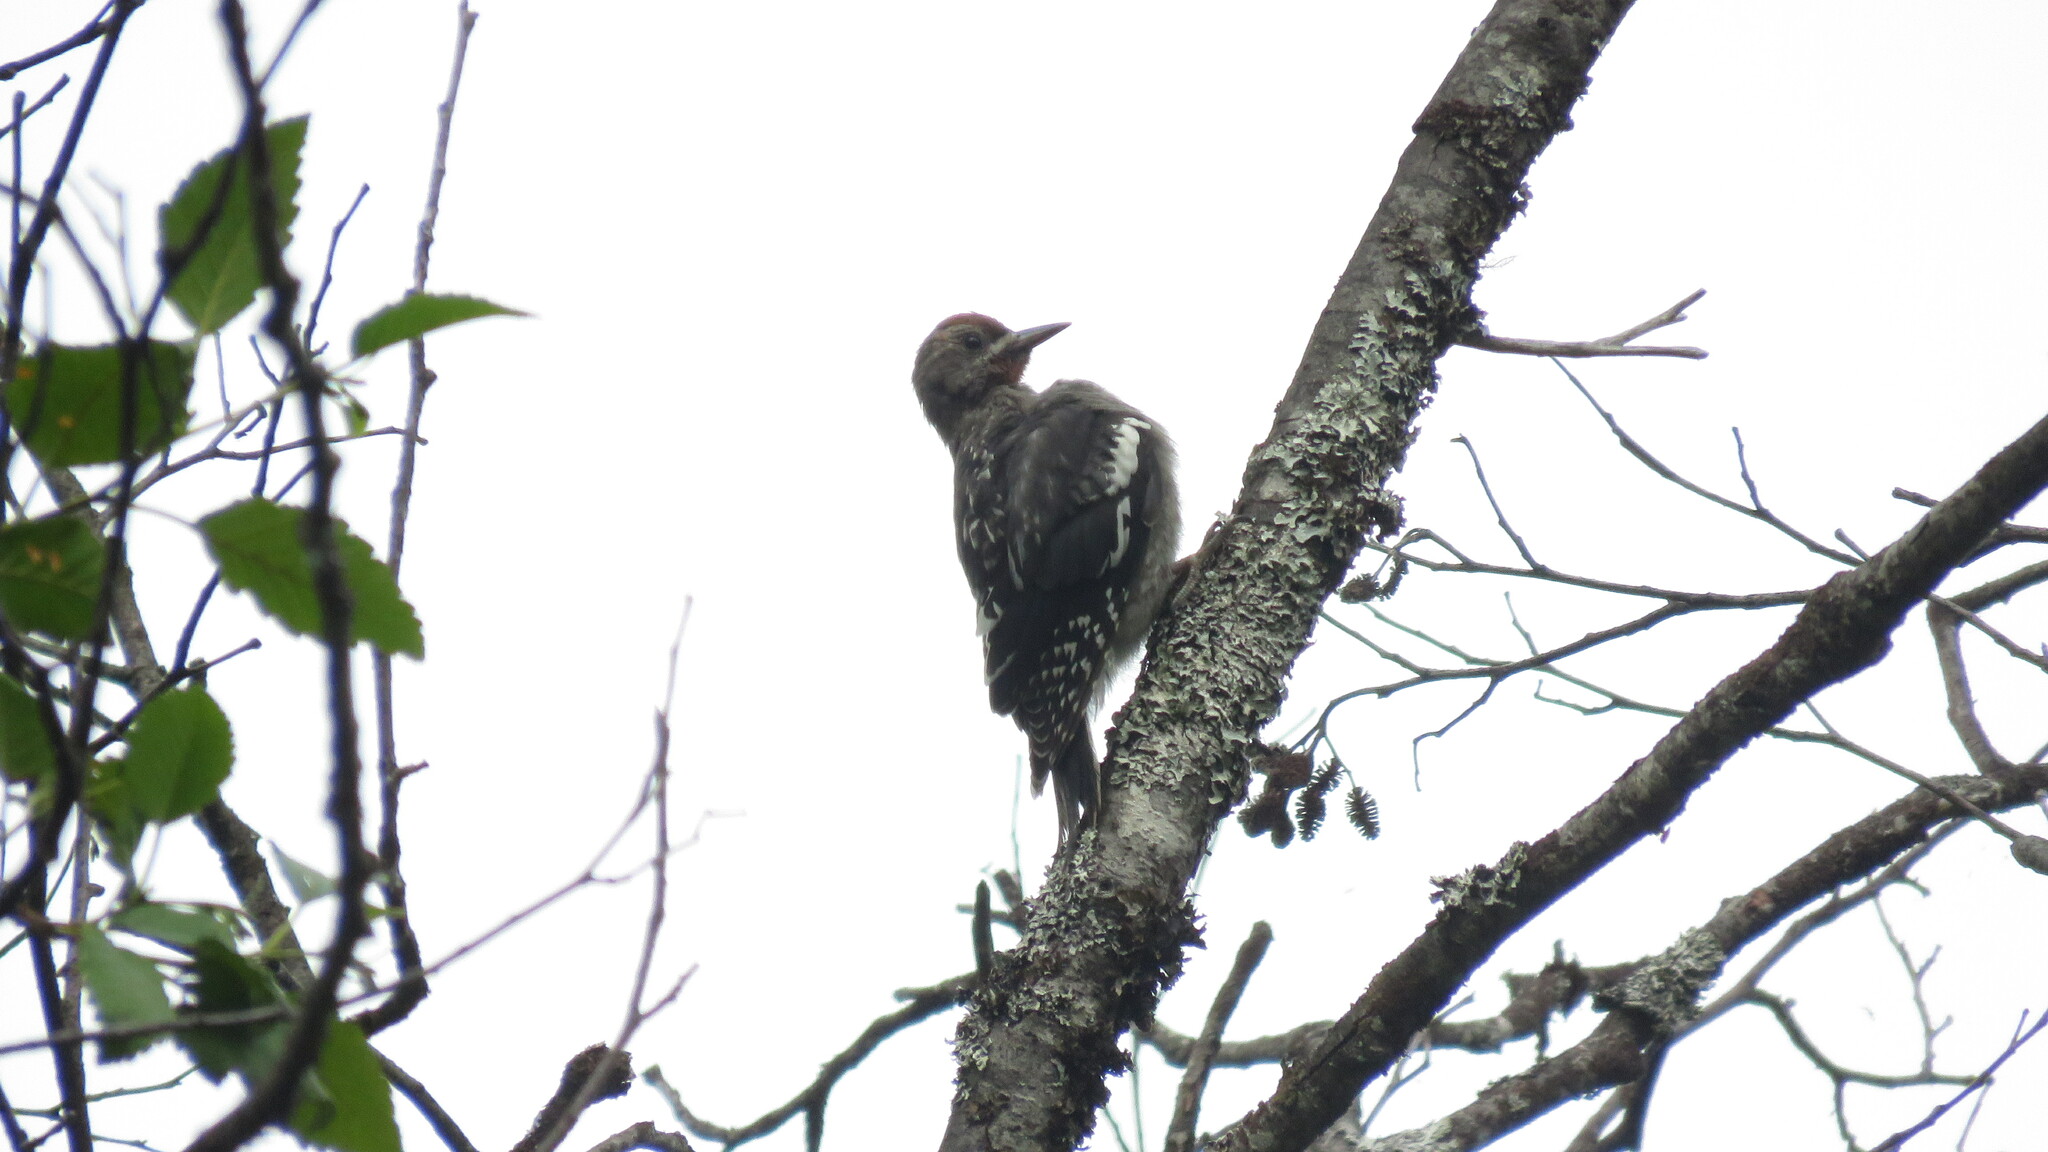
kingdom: Animalia
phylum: Chordata
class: Aves
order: Piciformes
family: Picidae
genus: Sphyrapicus
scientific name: Sphyrapicus ruber
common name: Red-breasted sapsucker
